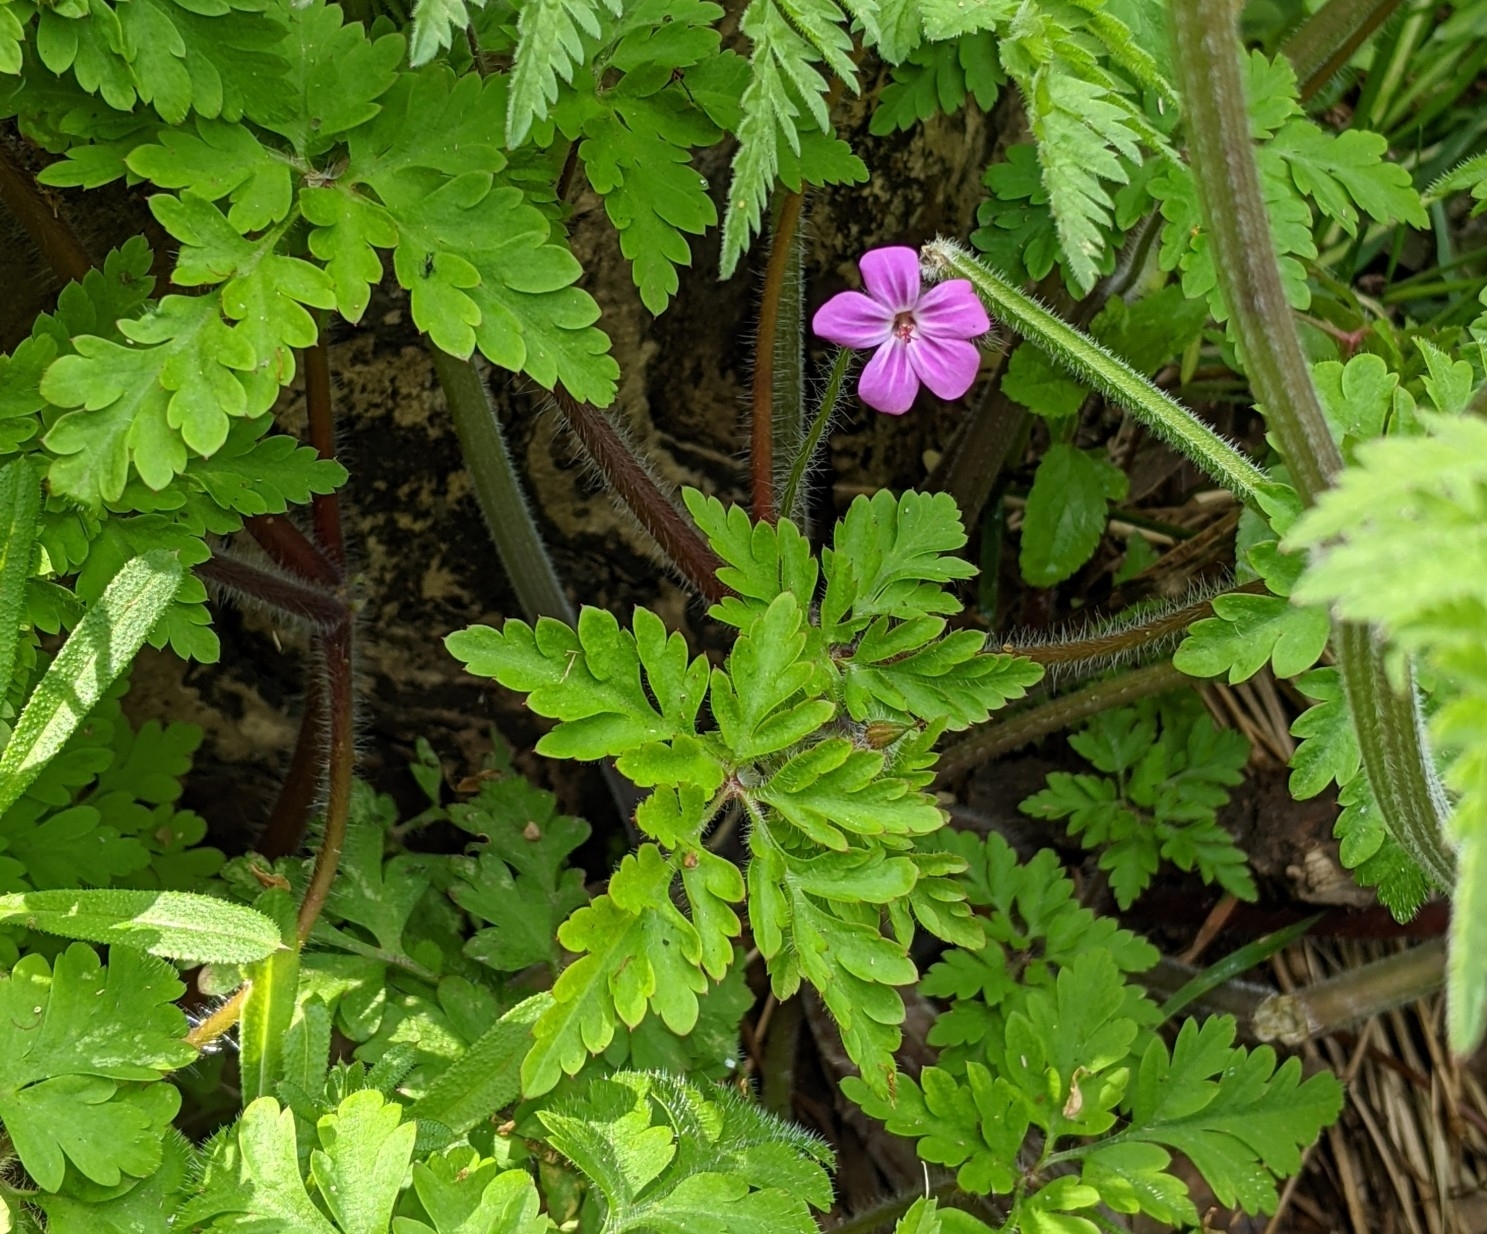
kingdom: Plantae
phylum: Tracheophyta
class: Magnoliopsida
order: Geraniales
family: Geraniaceae
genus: Geranium
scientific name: Geranium robertianum
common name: Herb-robert
